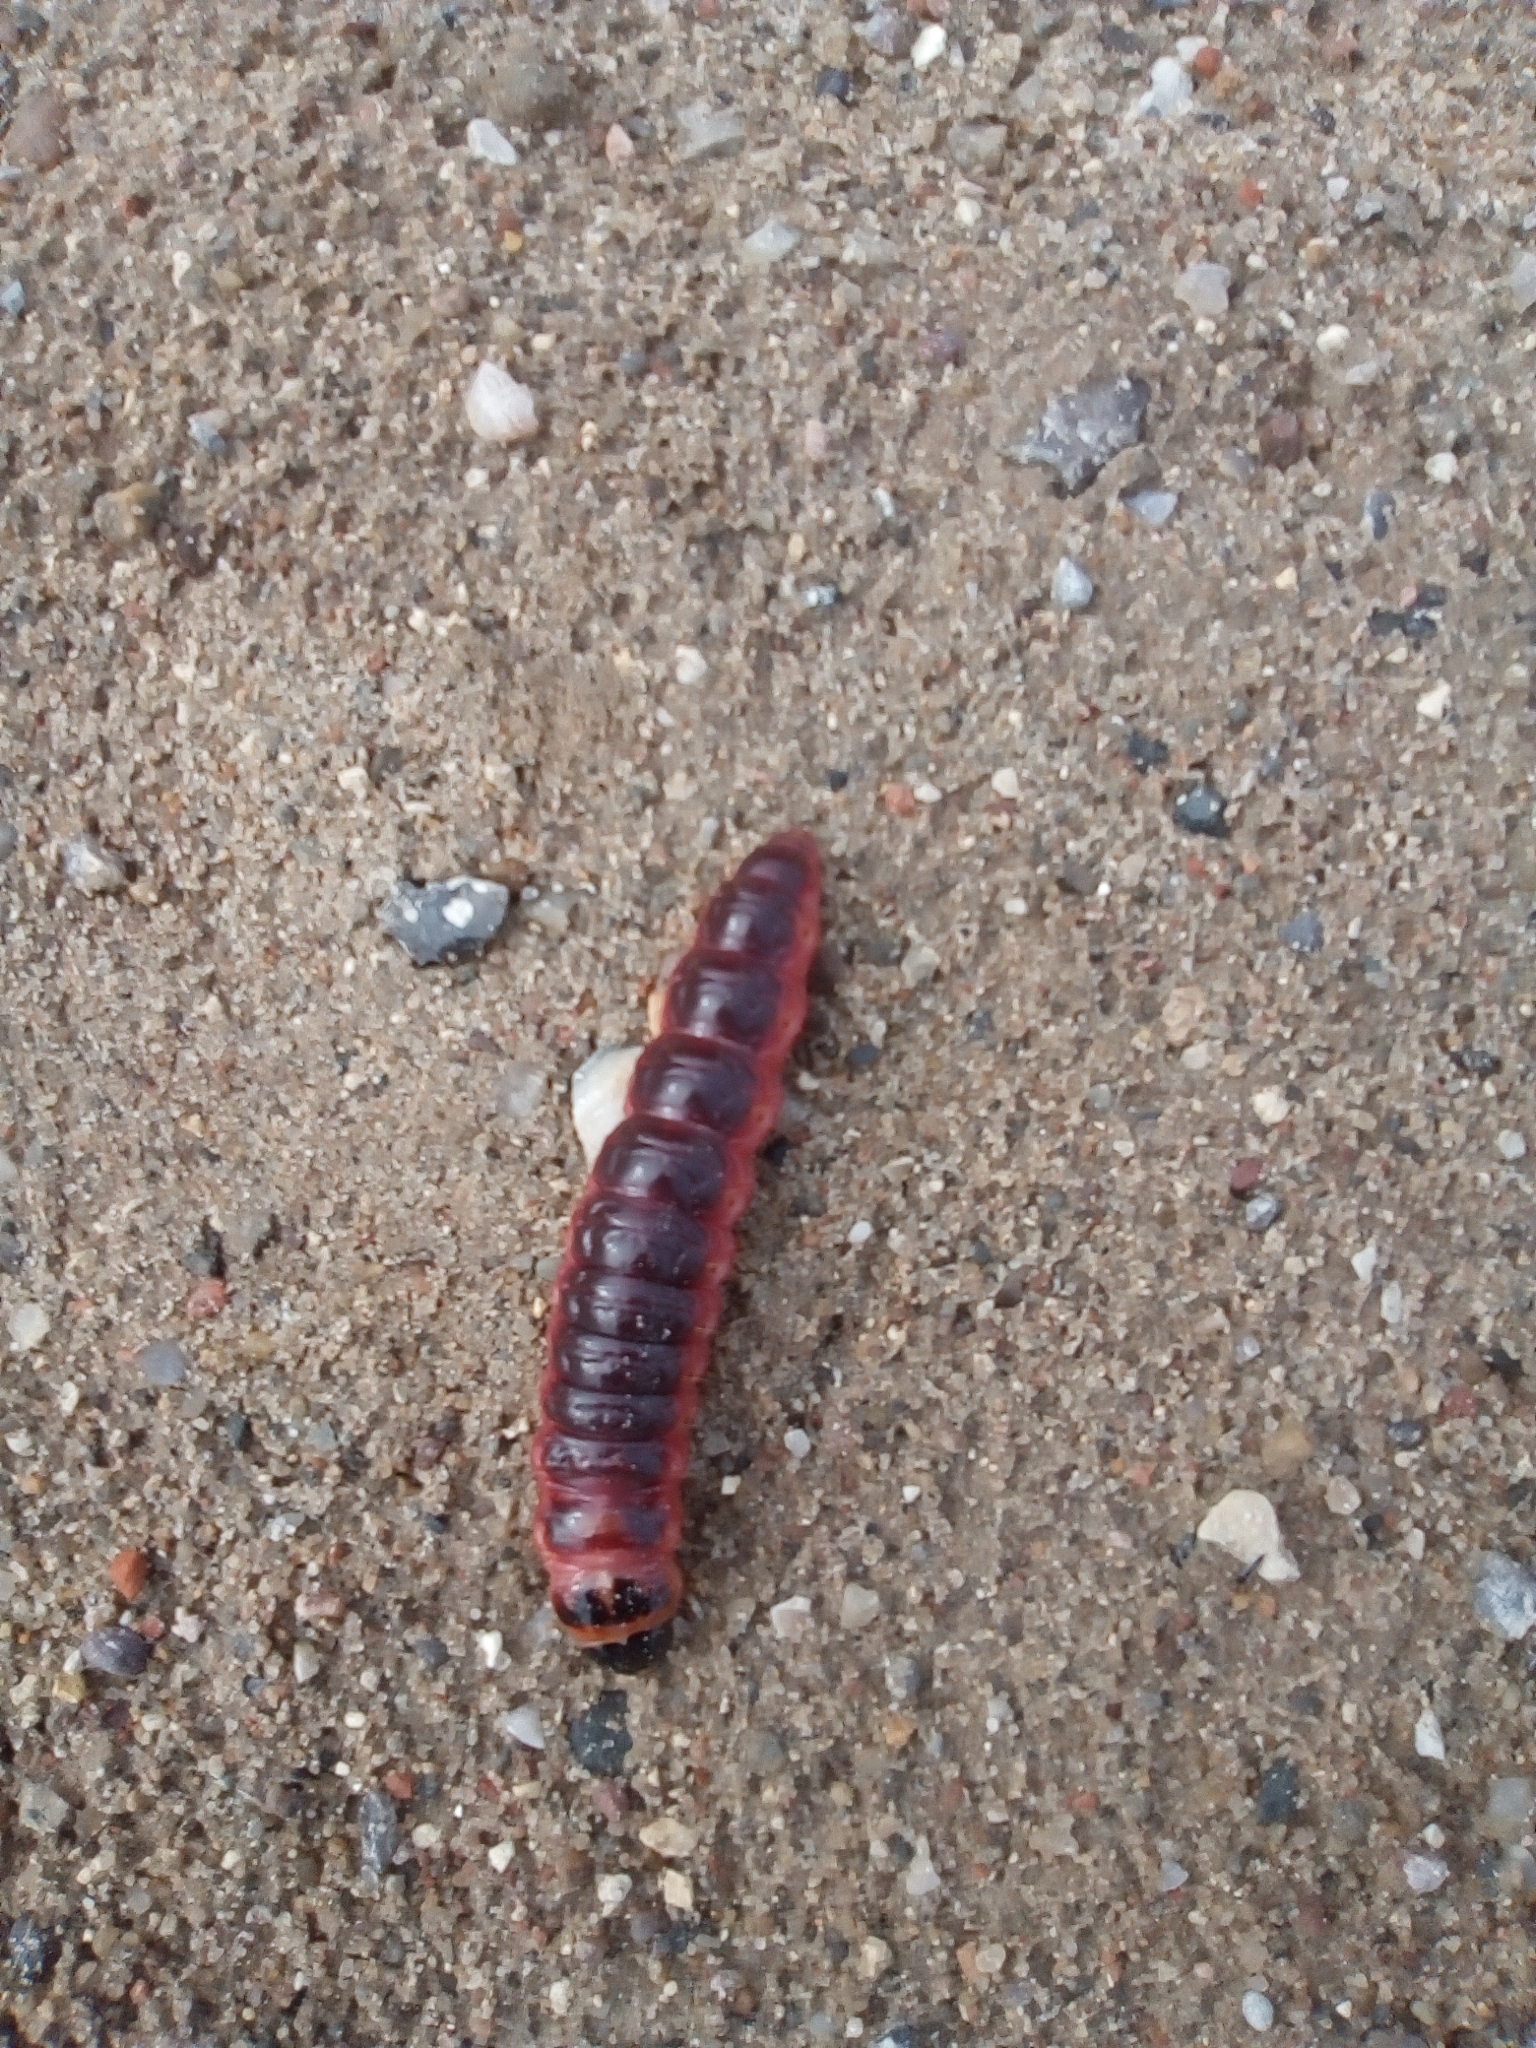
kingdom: Animalia
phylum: Arthropoda
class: Insecta
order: Lepidoptera
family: Cossidae
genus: Cossus
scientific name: Cossus cossus
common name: Goat moth
